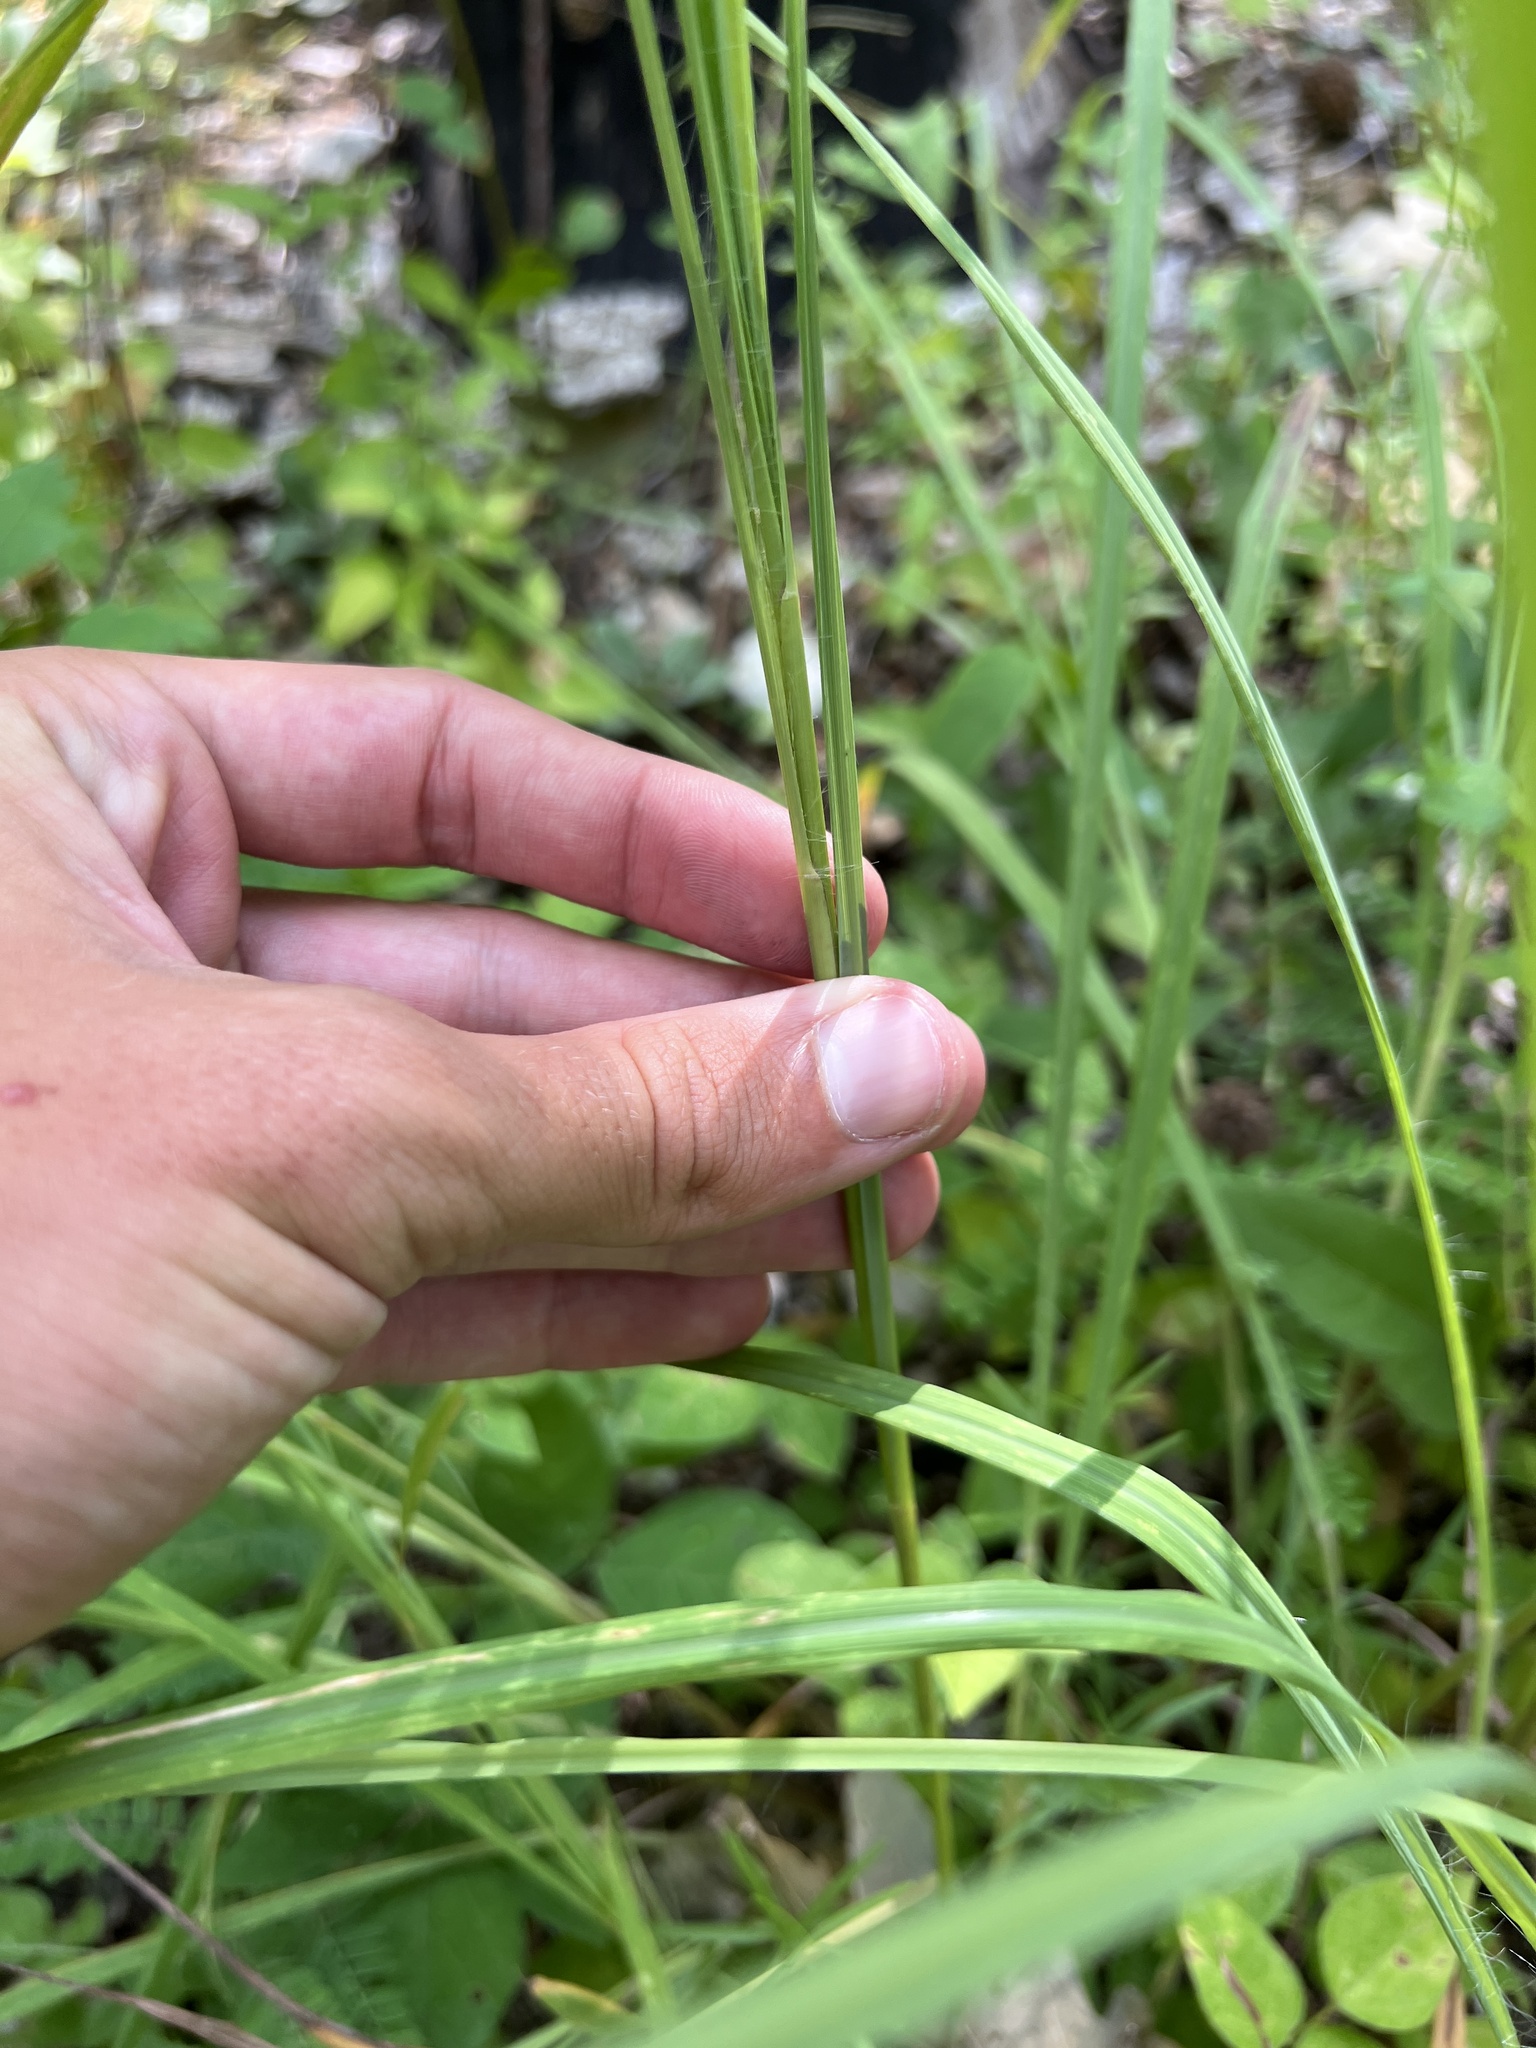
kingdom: Plantae
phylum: Tracheophyta
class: Liliopsida
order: Poales
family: Poaceae
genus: Andropogon
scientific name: Andropogon gerardi
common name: Big bluestem
